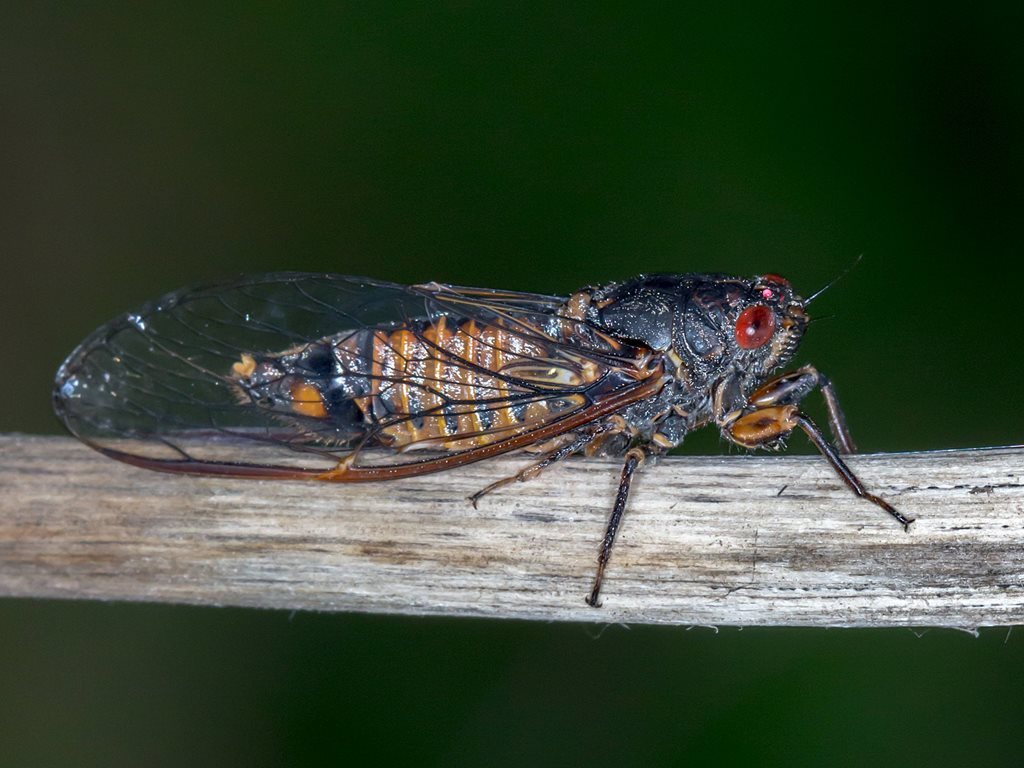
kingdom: Animalia
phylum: Arthropoda
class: Insecta
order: Hemiptera
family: Cicadidae
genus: Yoyetta
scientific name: Yoyetta fluviatilis
